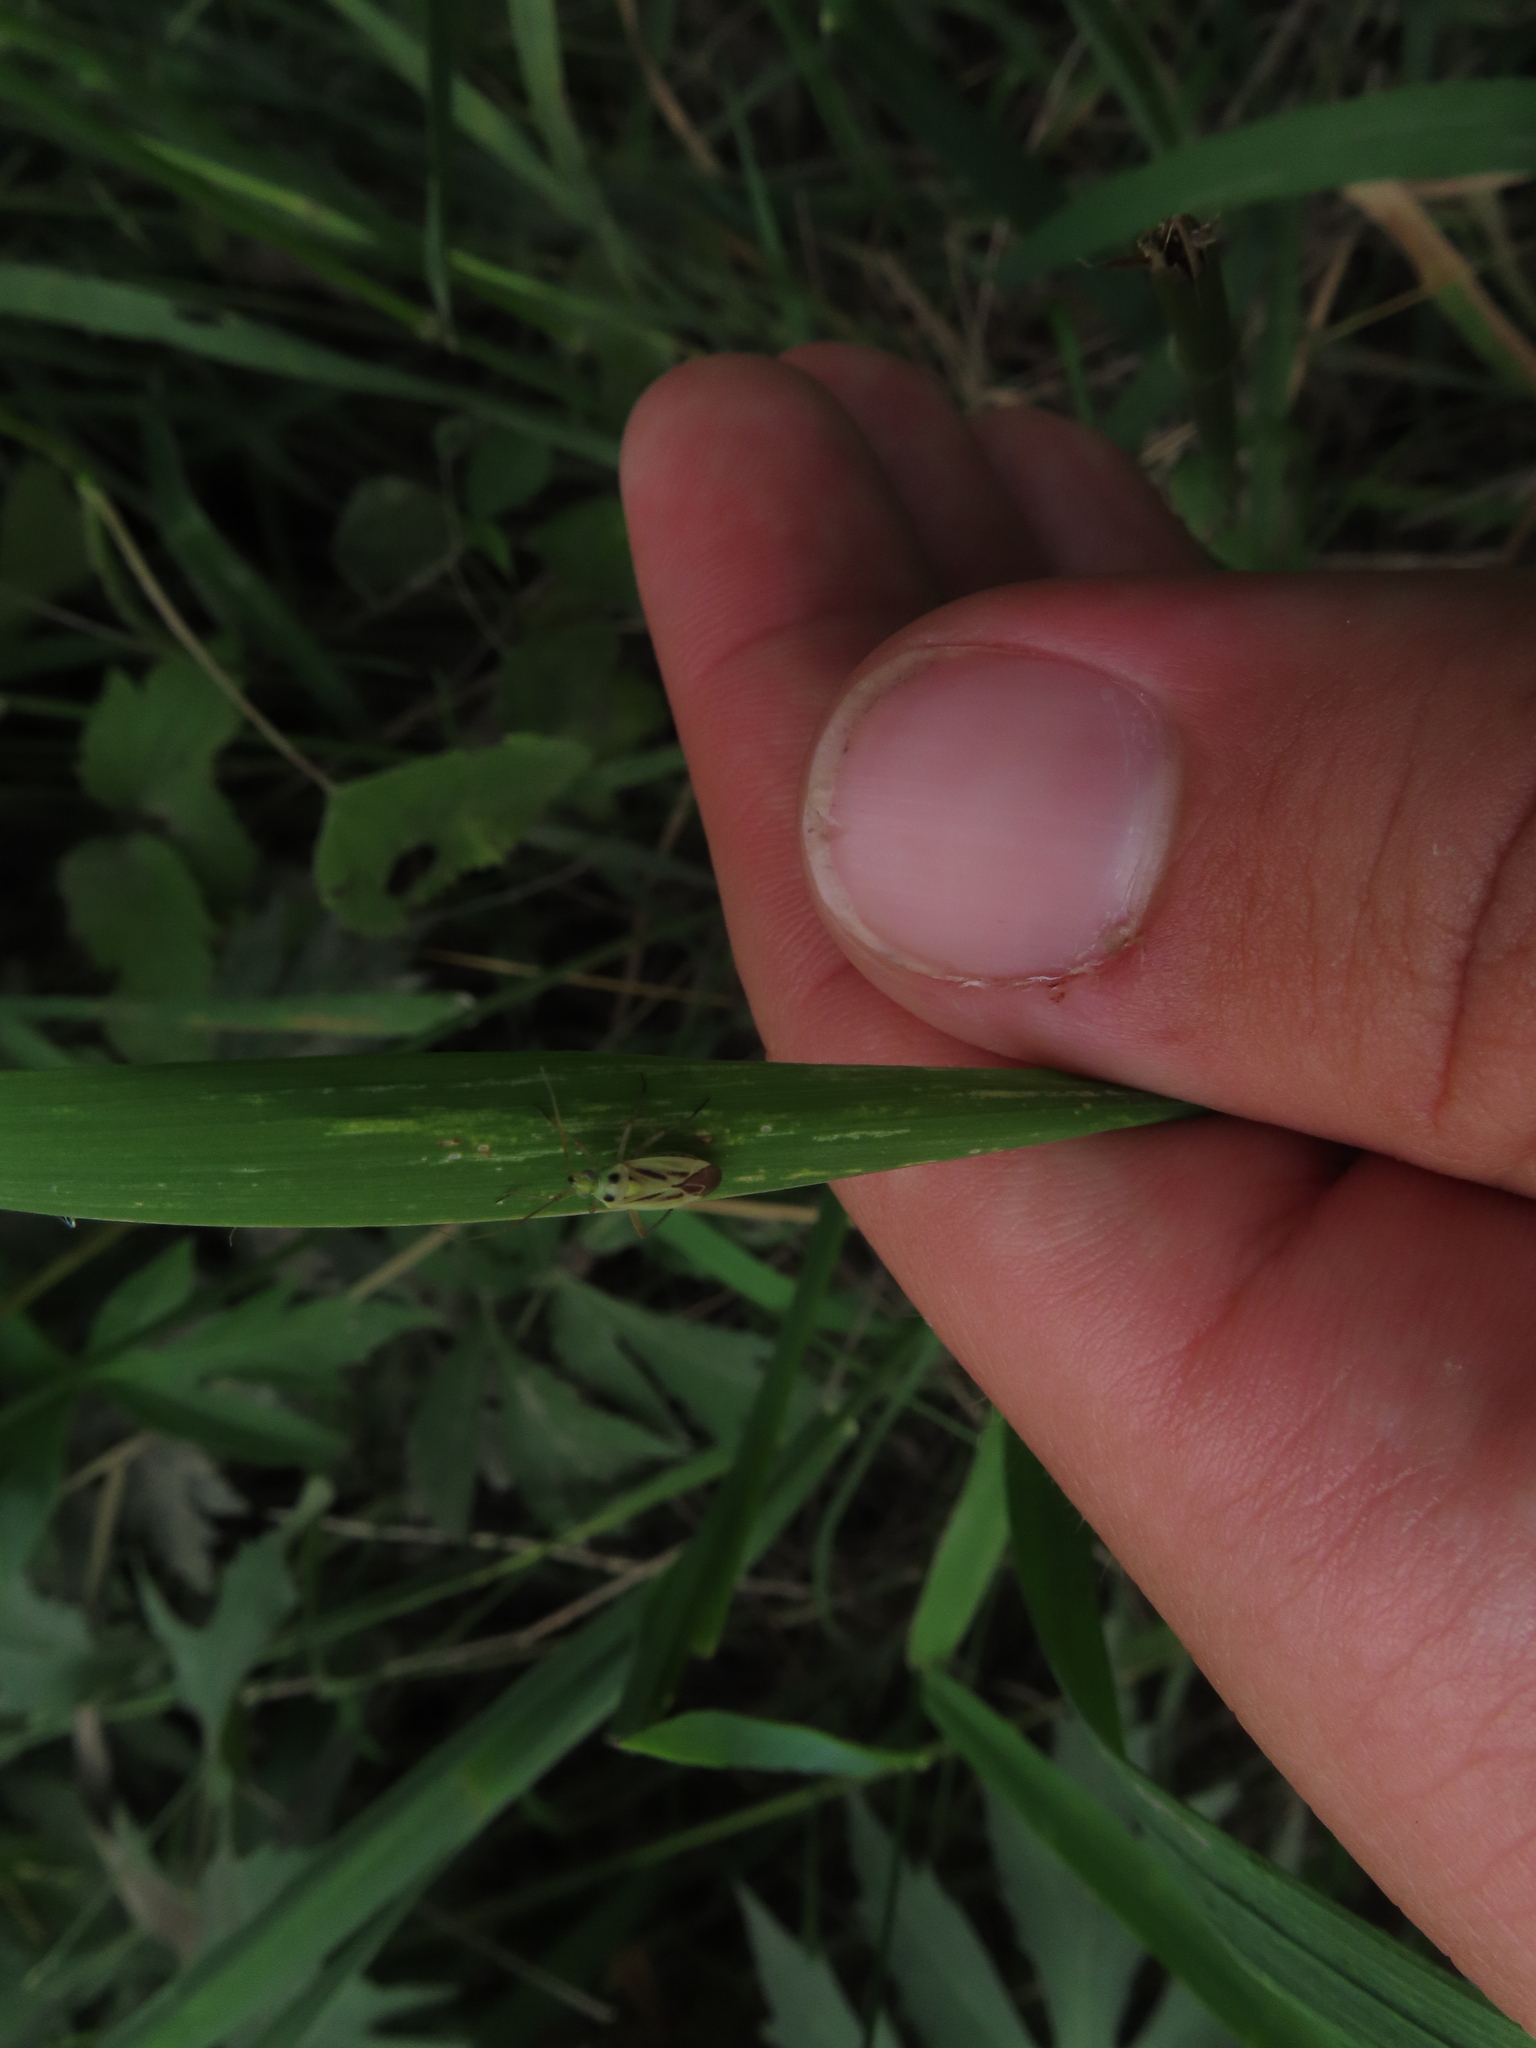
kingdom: Animalia
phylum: Arthropoda
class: Insecta
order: Hemiptera
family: Miridae
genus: Stenotus
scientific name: Stenotus binotatus
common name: Plant bug
